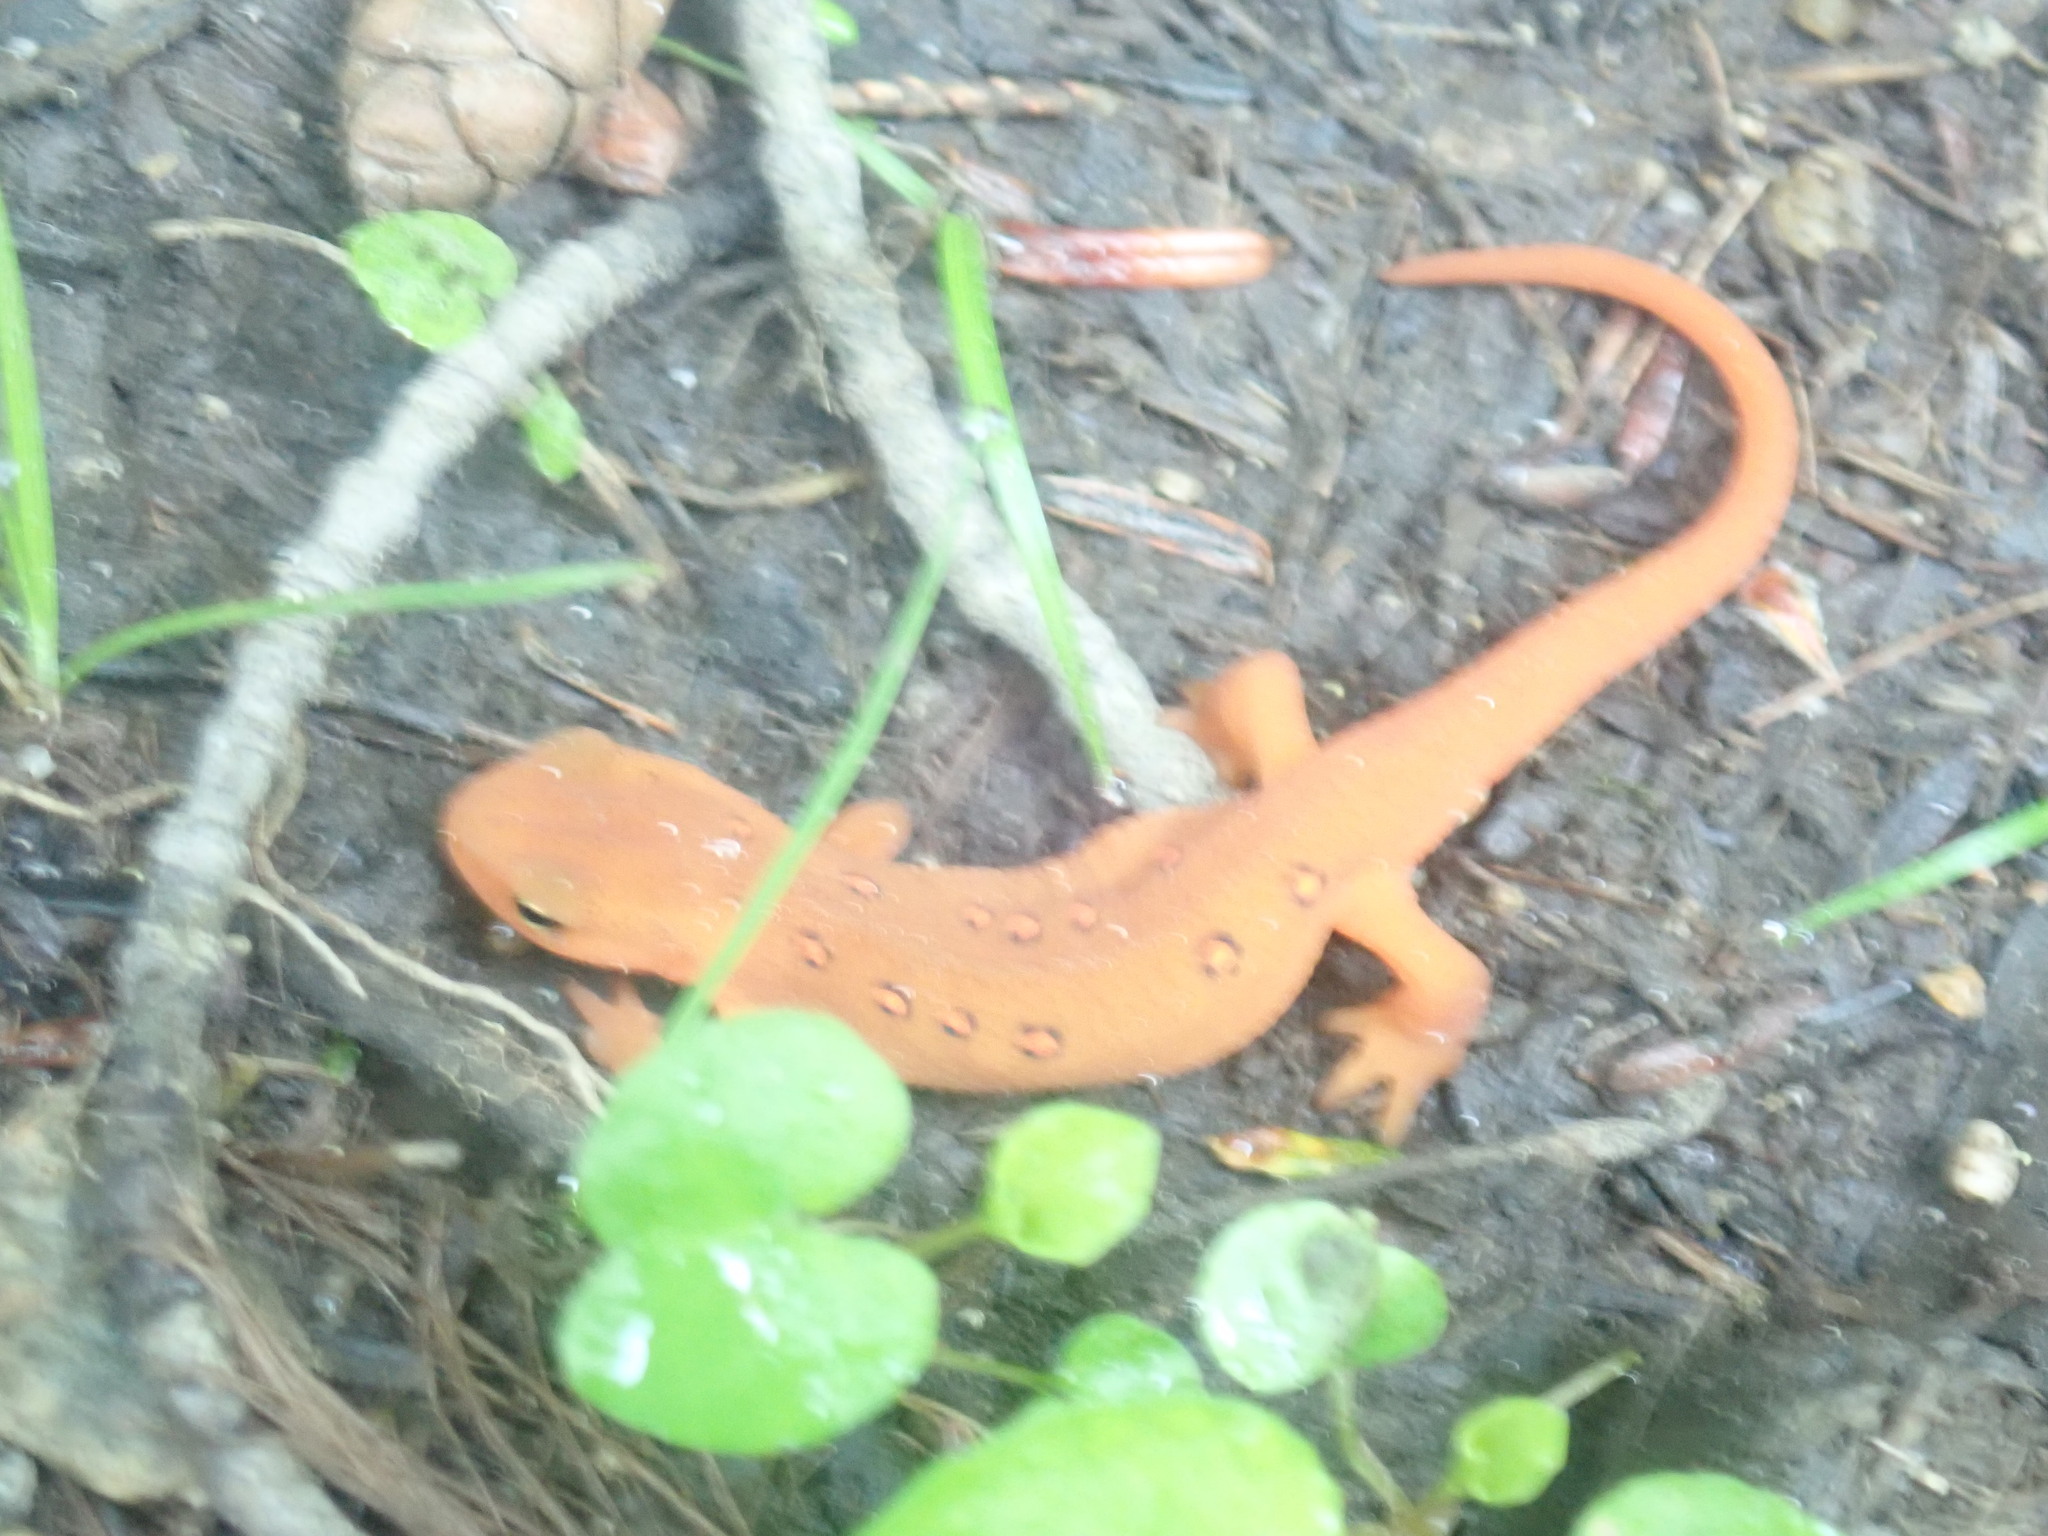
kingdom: Animalia
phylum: Chordata
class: Amphibia
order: Caudata
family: Salamandridae
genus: Notophthalmus
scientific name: Notophthalmus viridescens
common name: Eastern newt
